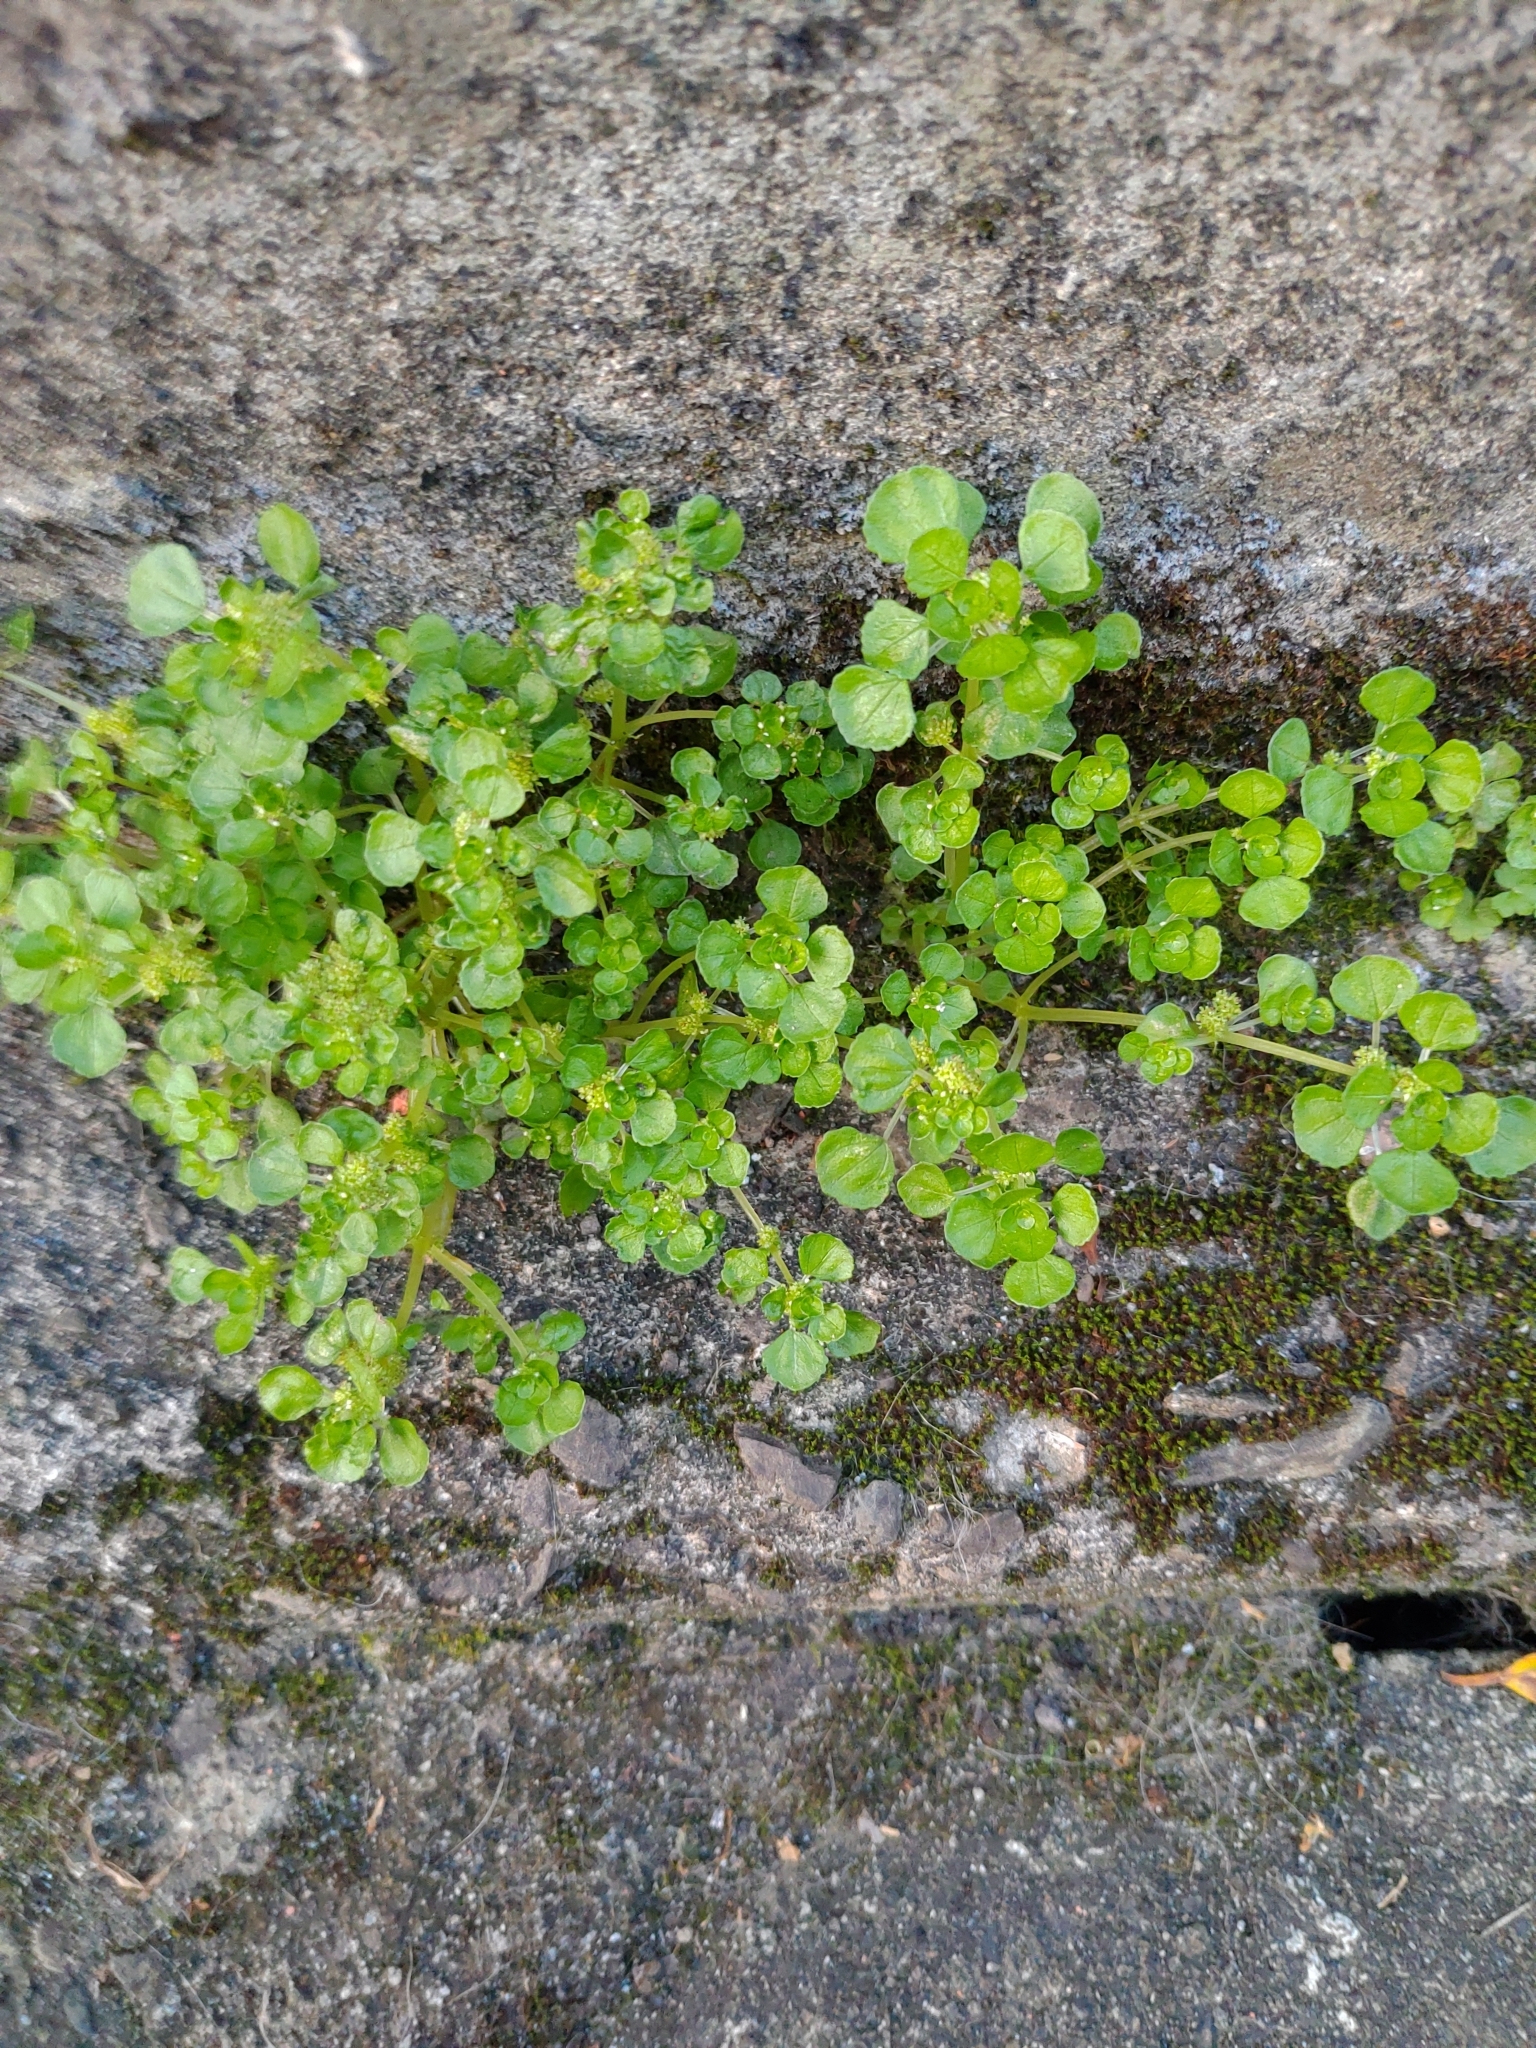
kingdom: Plantae
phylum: Tracheophyta
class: Magnoliopsida
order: Rosales
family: Urticaceae
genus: Pilea
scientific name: Pilea peploides
